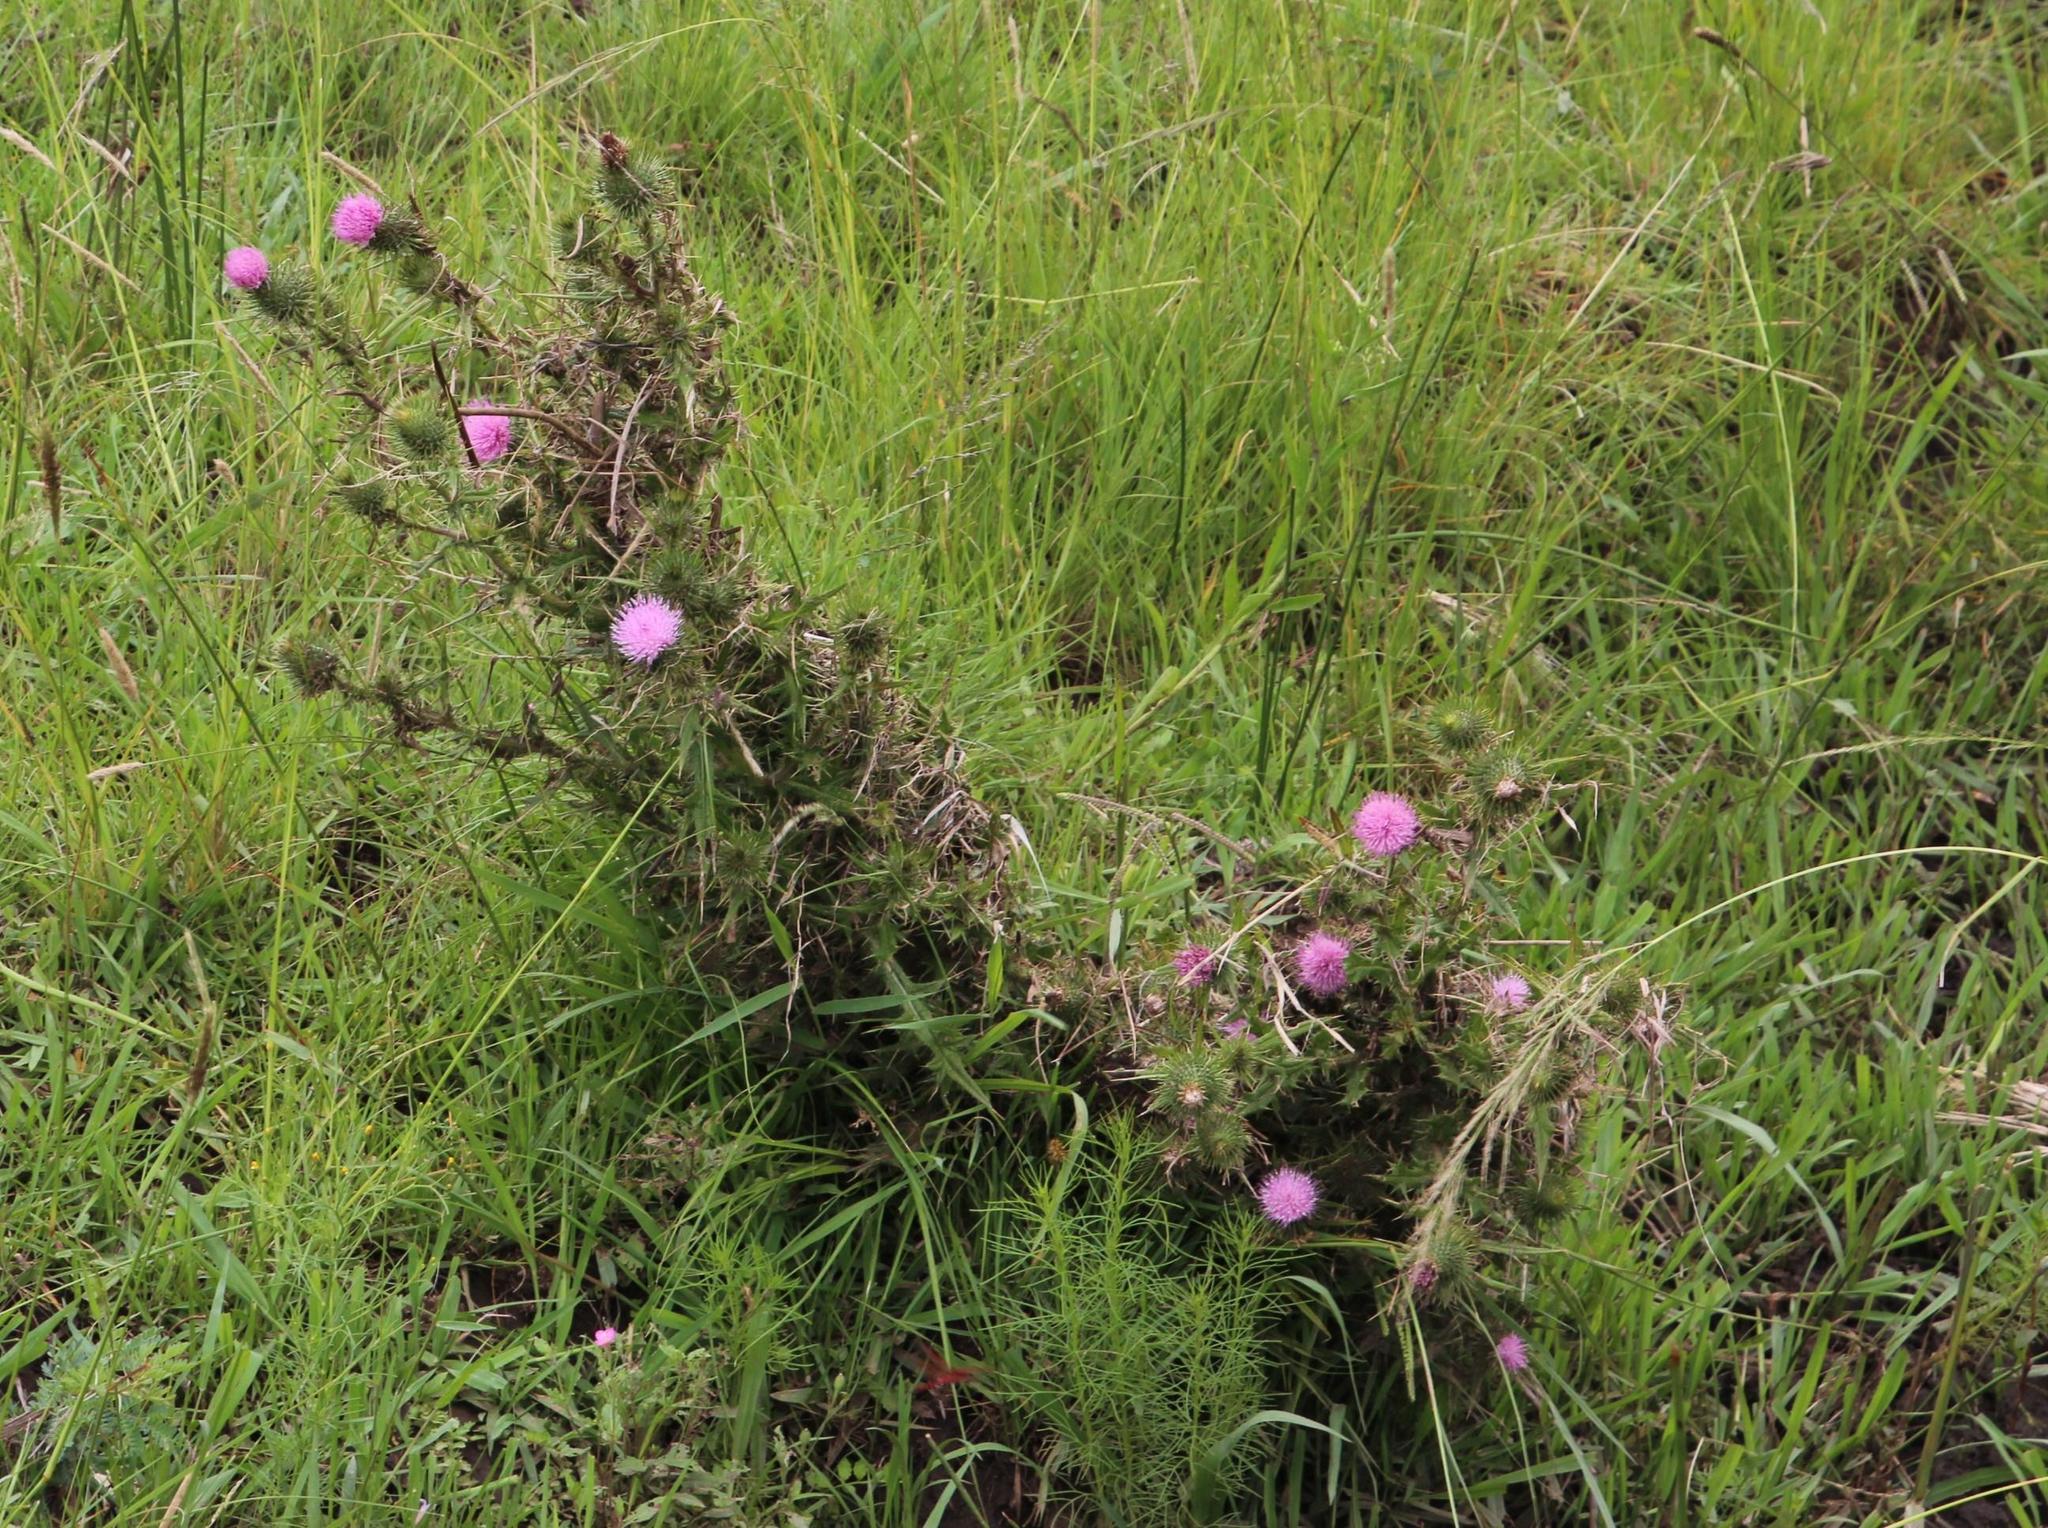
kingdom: Plantae
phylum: Tracheophyta
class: Magnoliopsida
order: Asterales
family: Asteraceae
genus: Cirsium
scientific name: Cirsium vulgare
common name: Bull thistle
